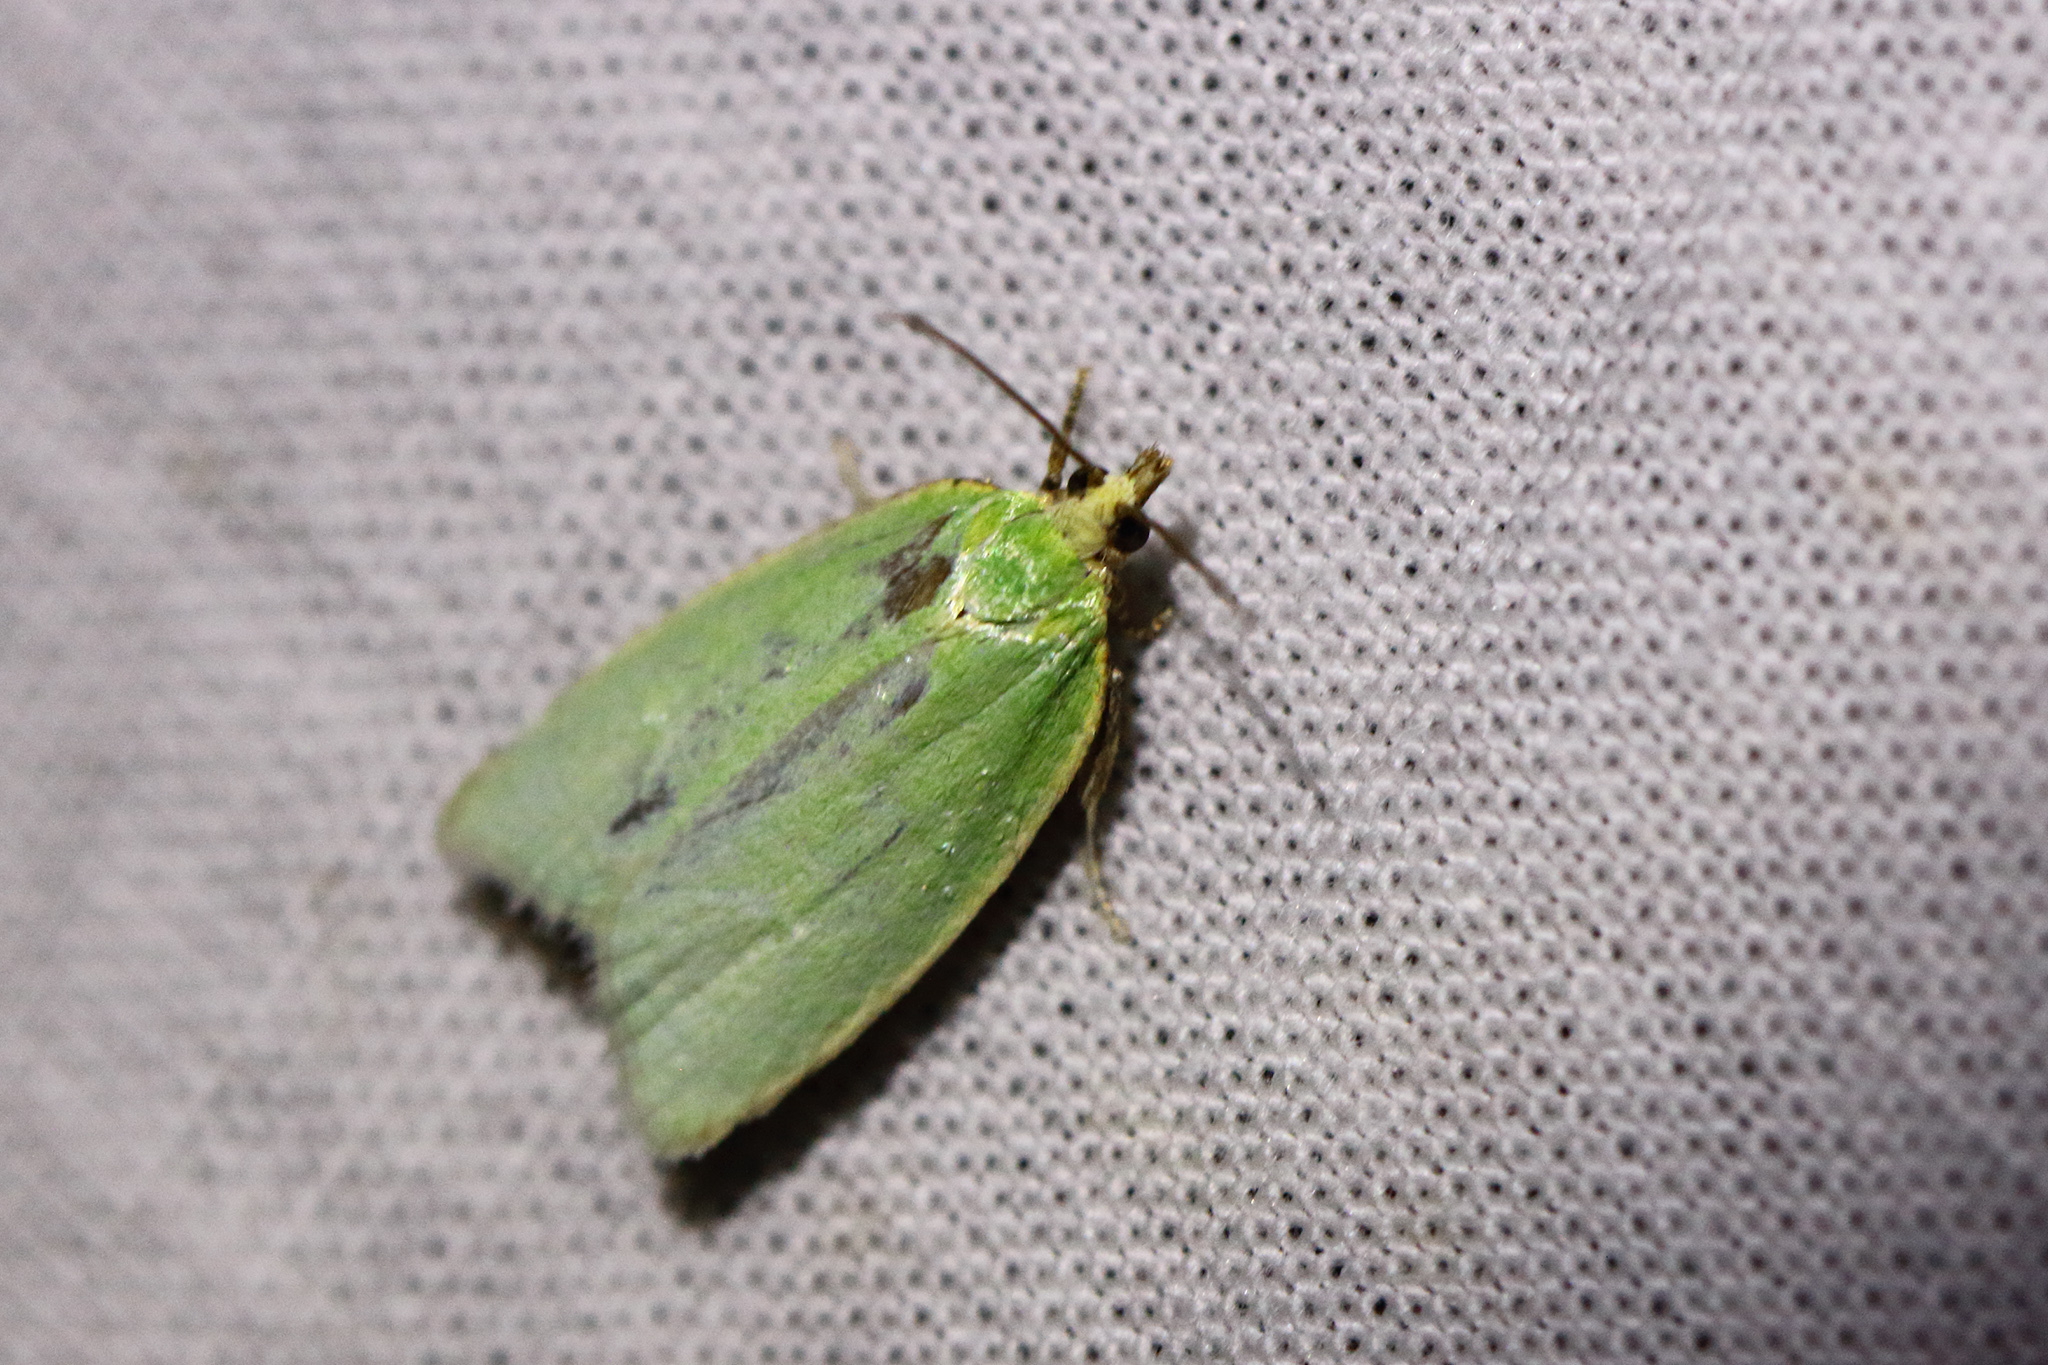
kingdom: Animalia
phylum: Arthropoda
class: Insecta
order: Lepidoptera
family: Tortricidae
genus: Tortrix
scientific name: Tortrix viridana
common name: Green oak tortrix
